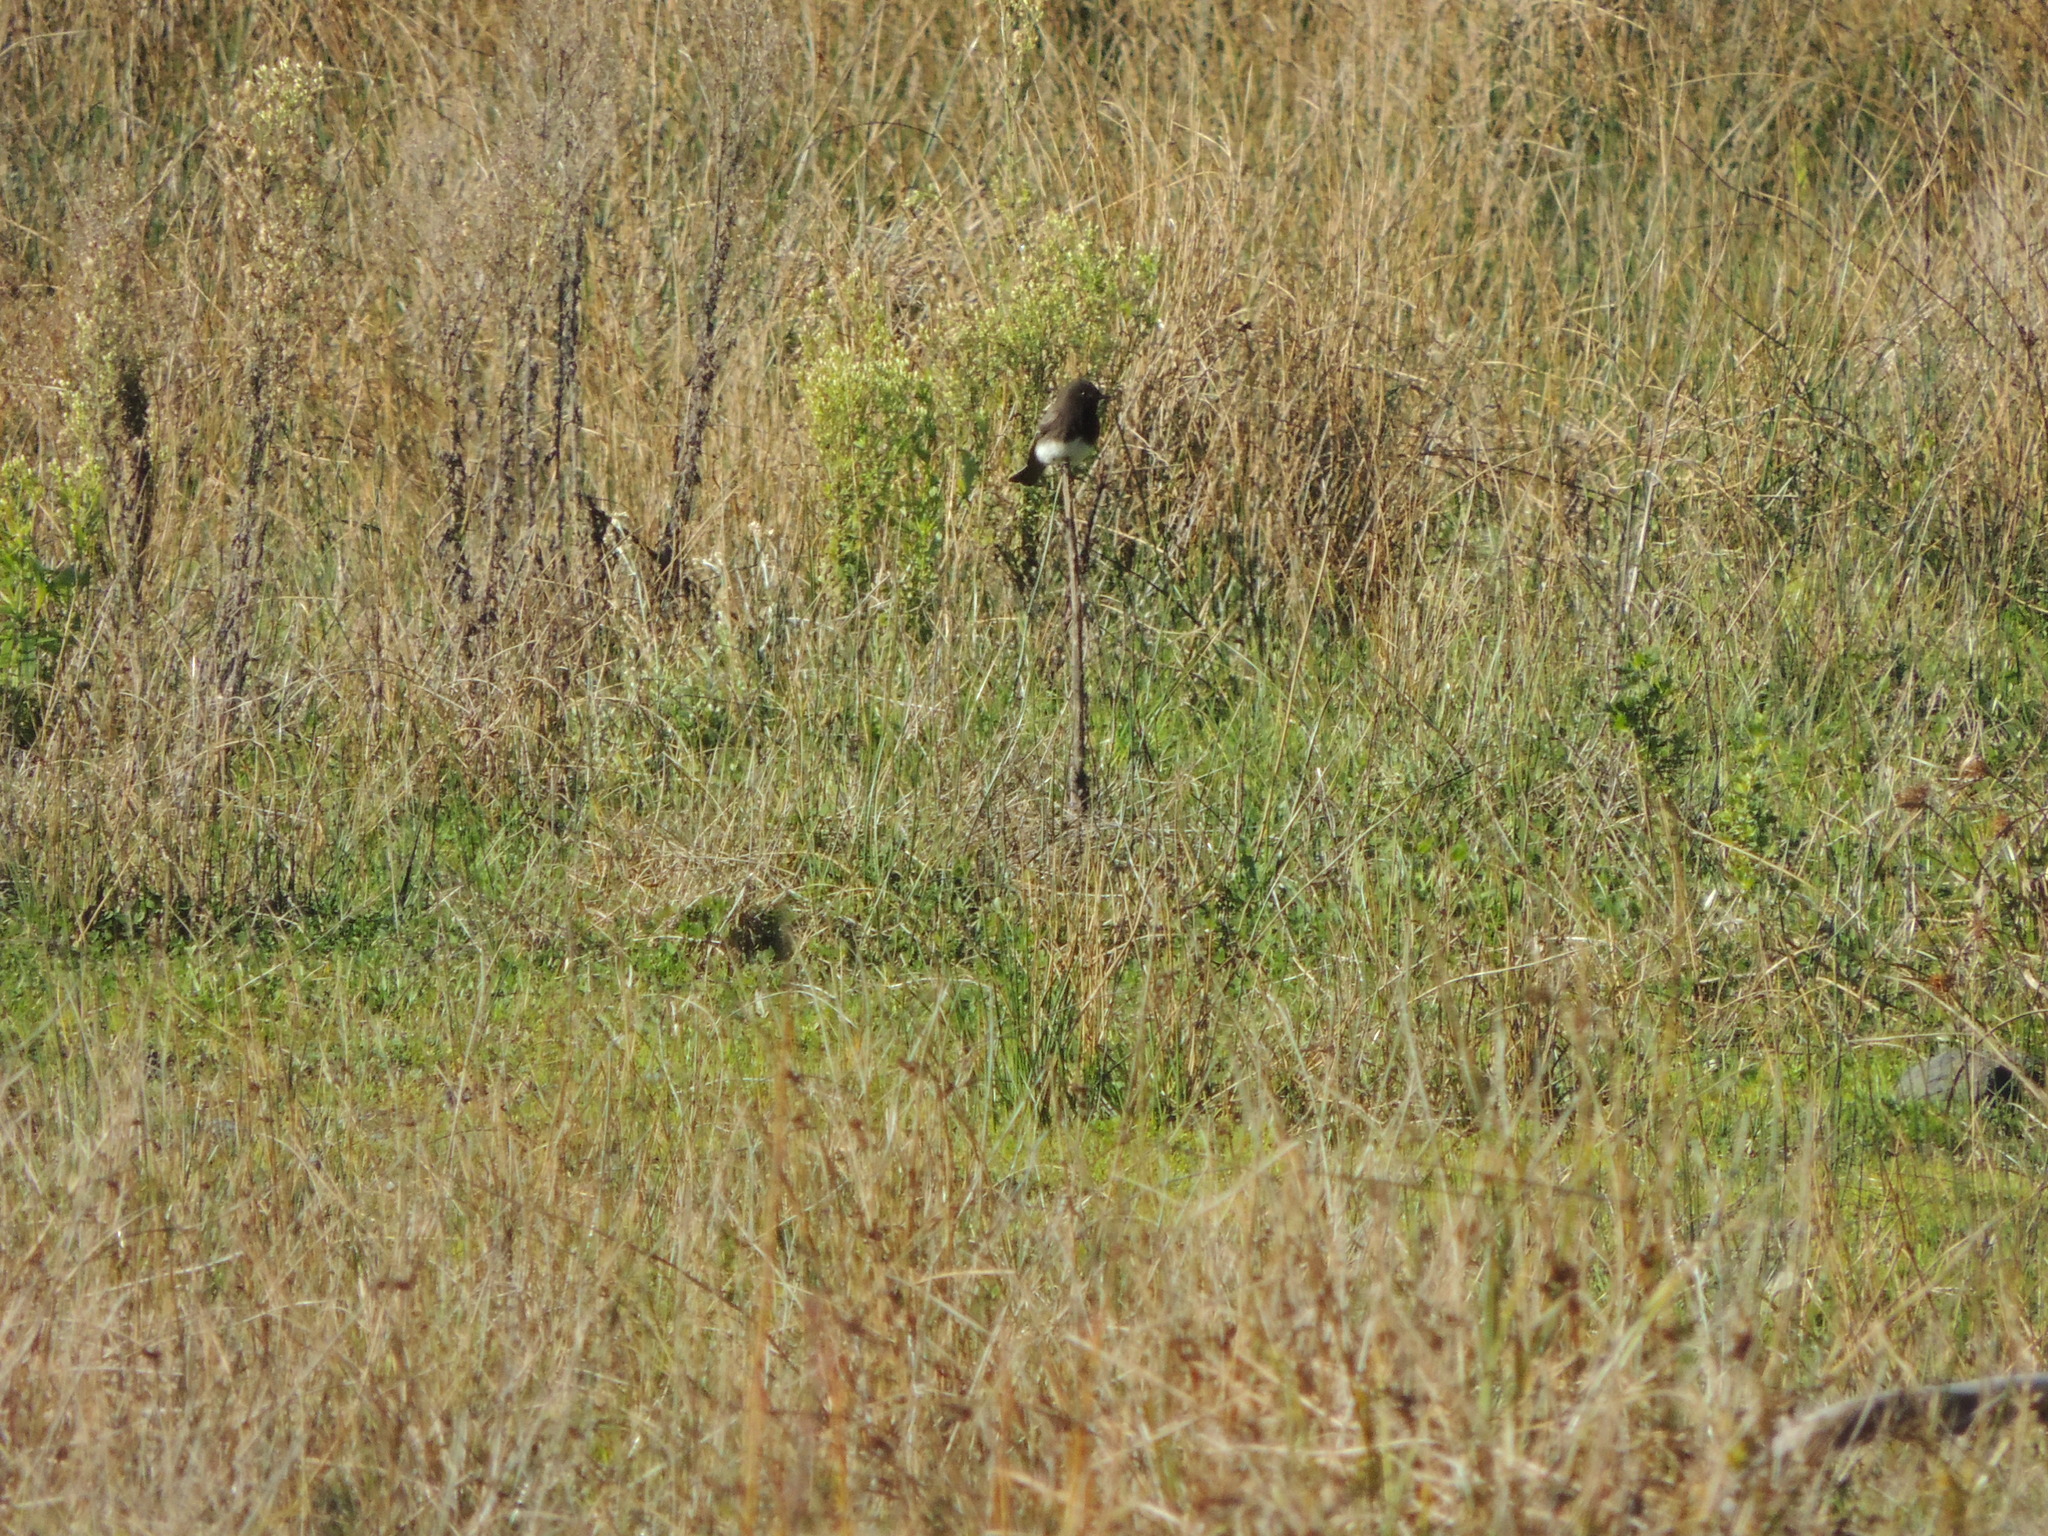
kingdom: Animalia
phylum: Chordata
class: Aves
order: Passeriformes
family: Tyrannidae
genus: Sayornis
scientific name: Sayornis nigricans
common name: Black phoebe
